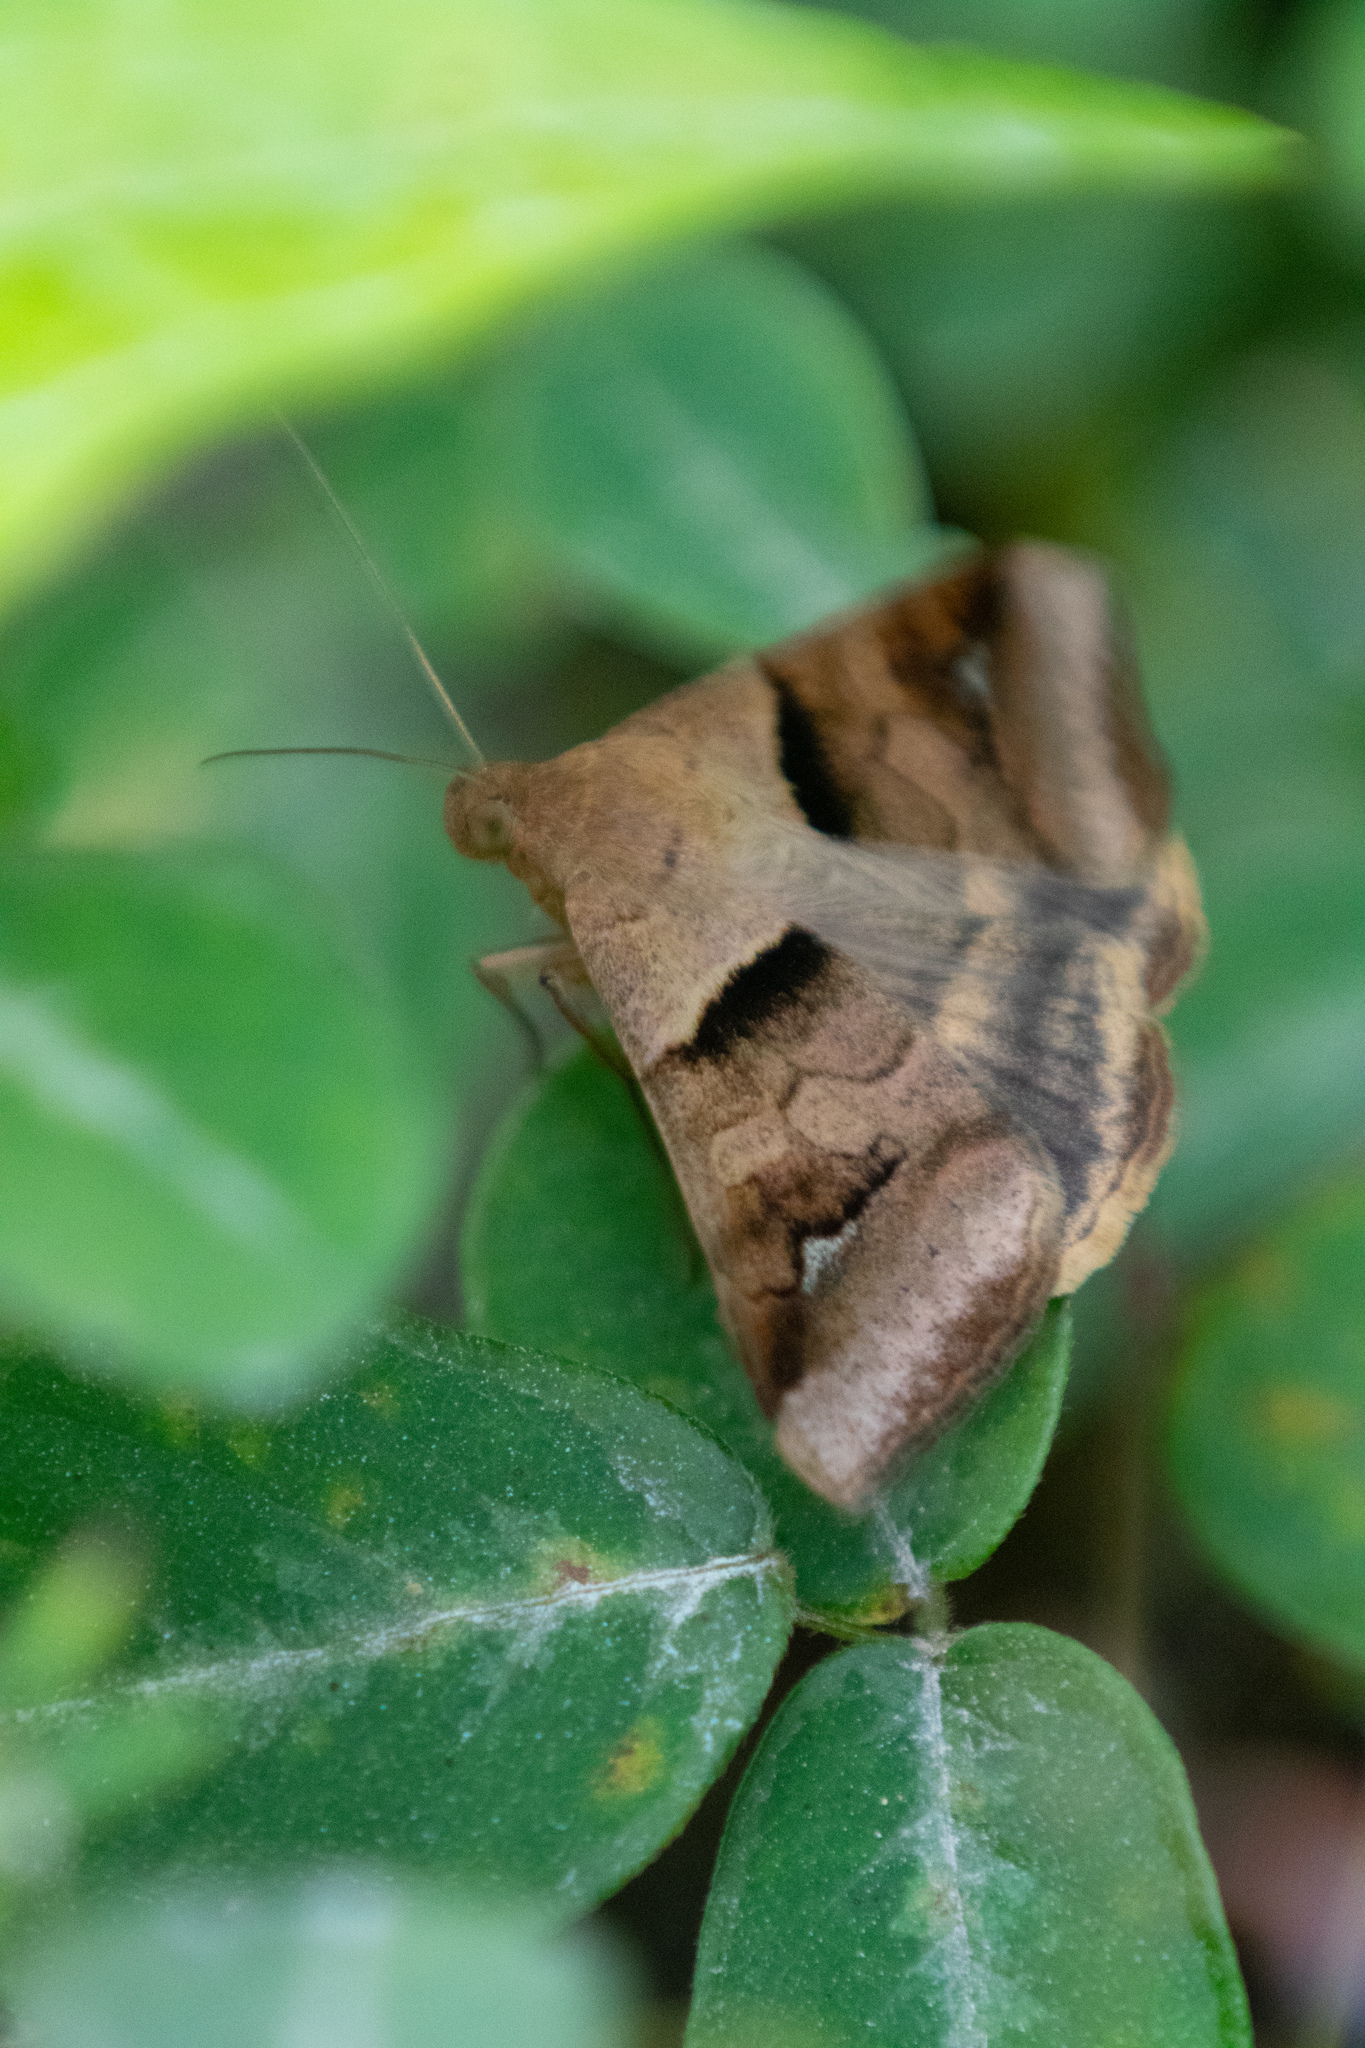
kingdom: Animalia
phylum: Arthropoda
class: Insecta
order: Lepidoptera
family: Erebidae
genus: Mocis
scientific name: Mocis trifasciata
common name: Triple-barred
